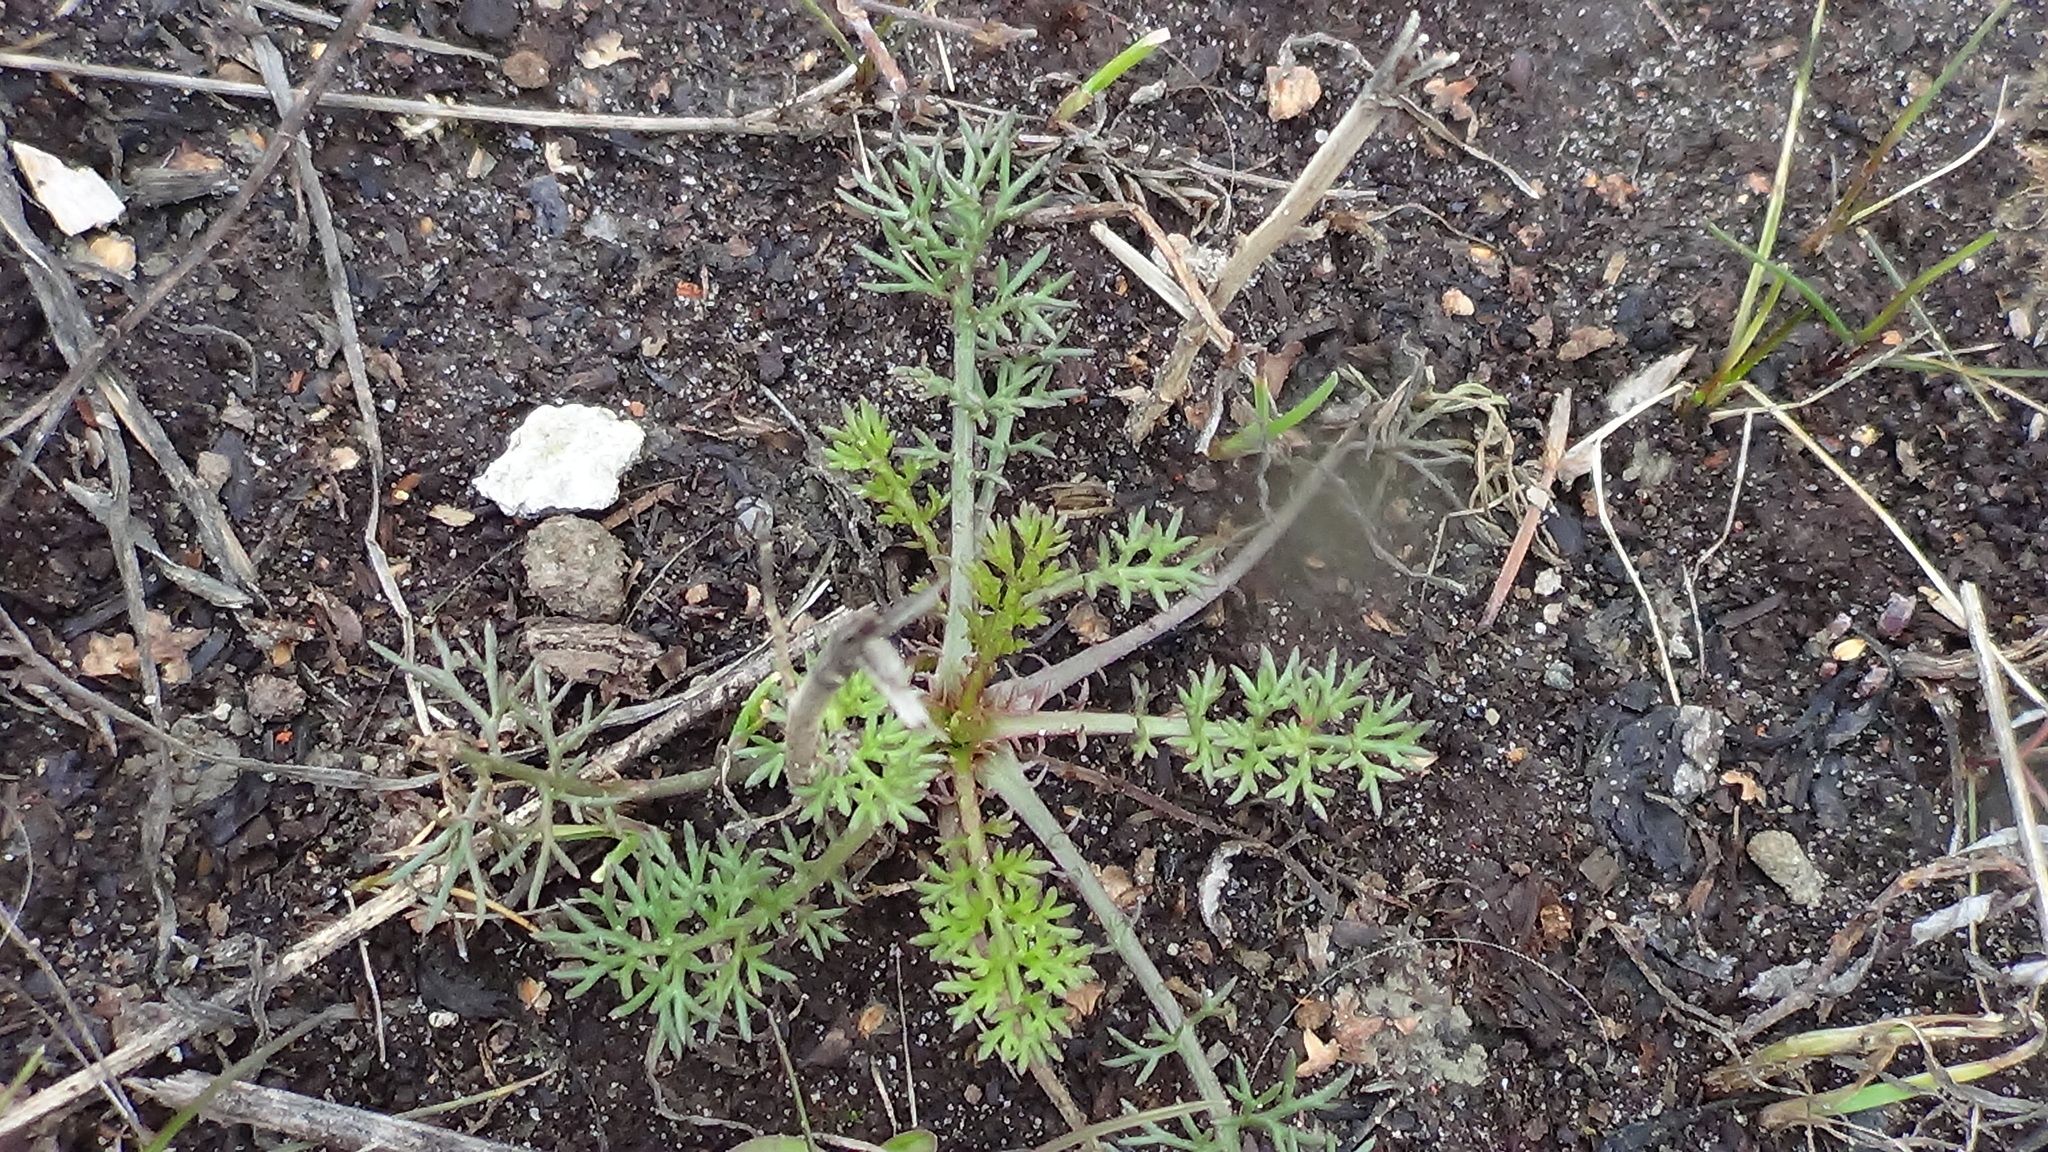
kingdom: Plantae
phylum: Tracheophyta
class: Magnoliopsida
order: Asterales
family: Asteraceae
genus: Tripleurospermum
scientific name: Tripleurospermum inodorum
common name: Scentless mayweed
